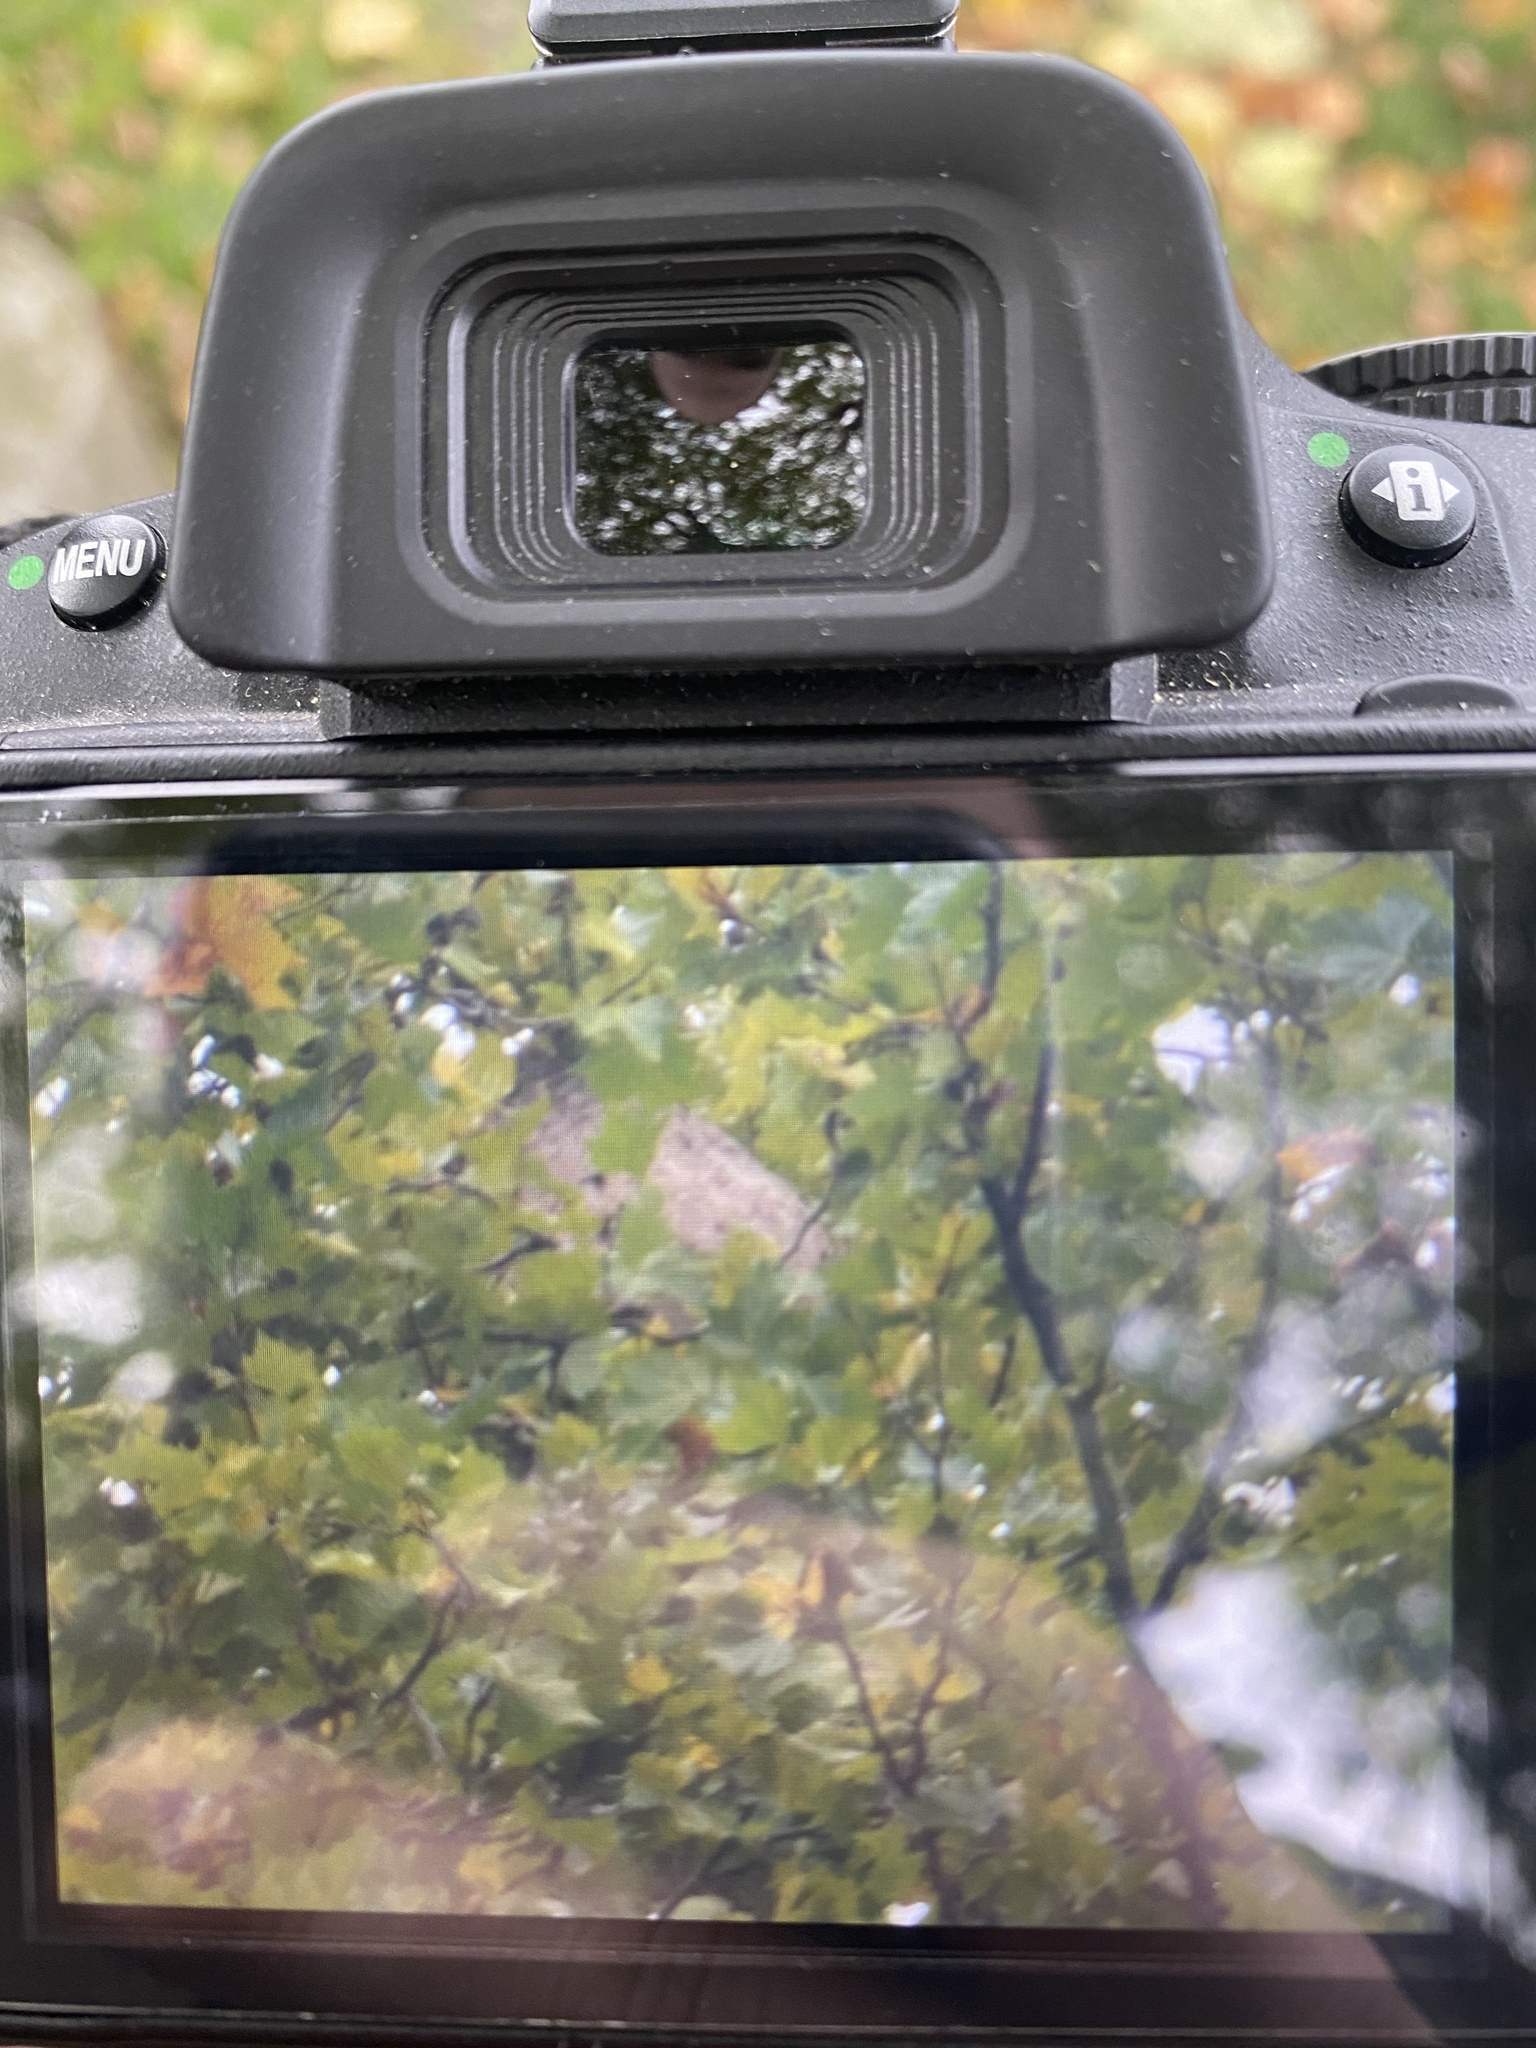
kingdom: Animalia
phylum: Arthropoda
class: Insecta
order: Hymenoptera
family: Vespidae
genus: Vespa
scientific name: Vespa velutina
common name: Asian hornet
